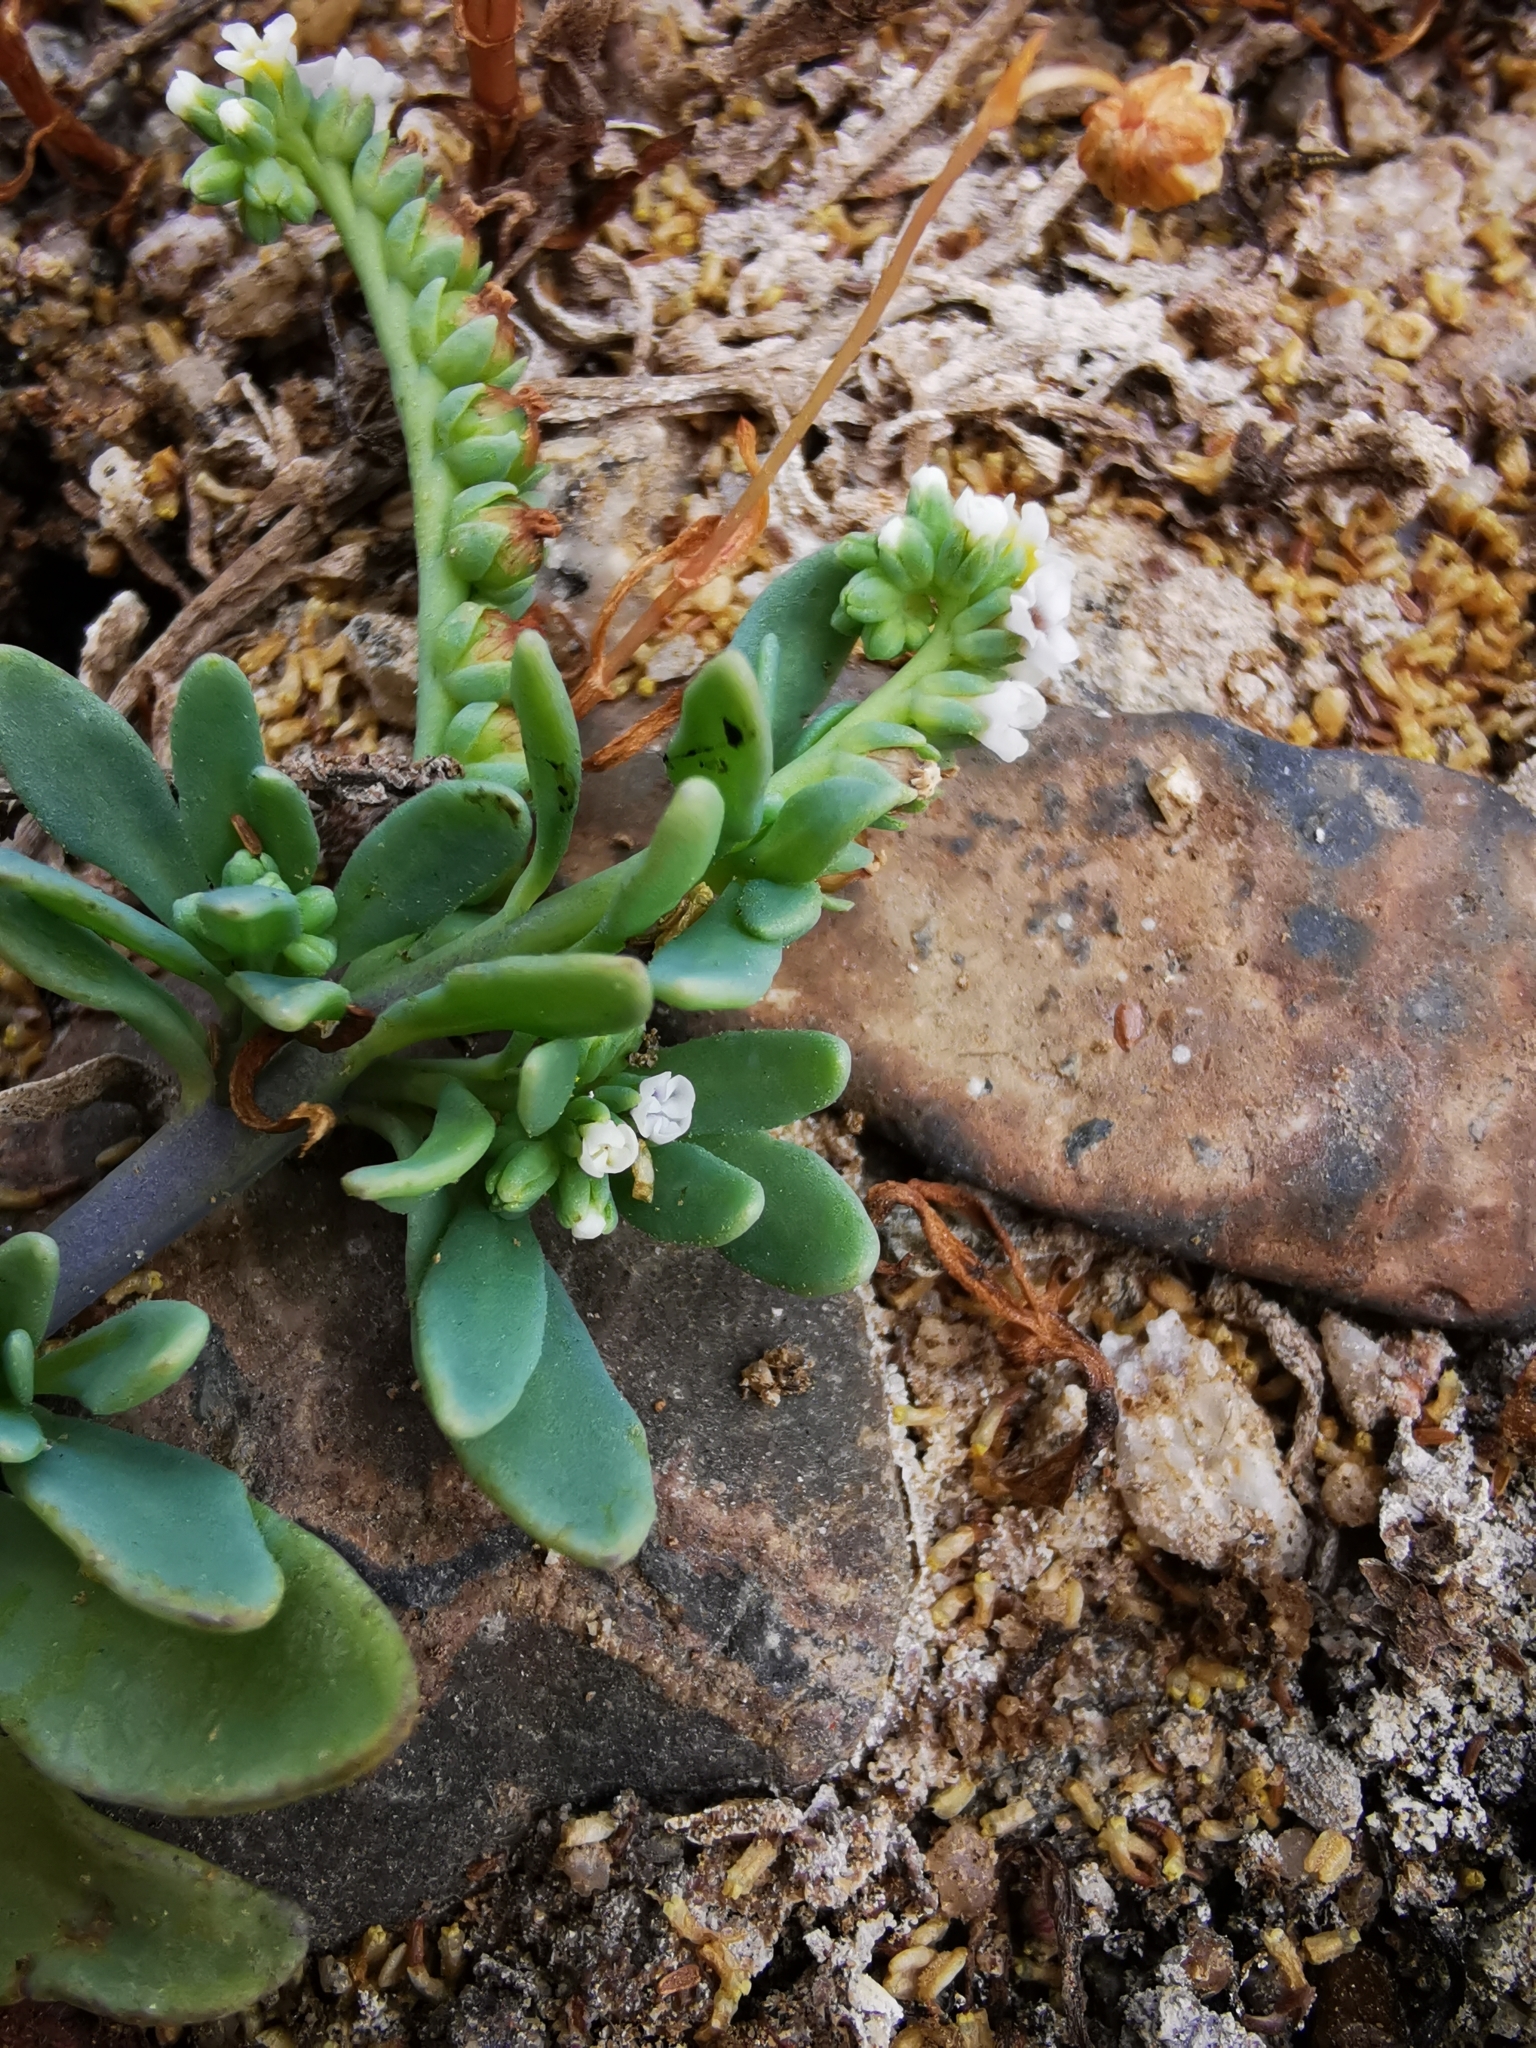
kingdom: Plantae
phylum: Tracheophyta
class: Magnoliopsida
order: Boraginales
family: Heliotropiaceae
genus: Heliotropium
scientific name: Heliotropium curassavicum
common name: Seaside heliotrope
